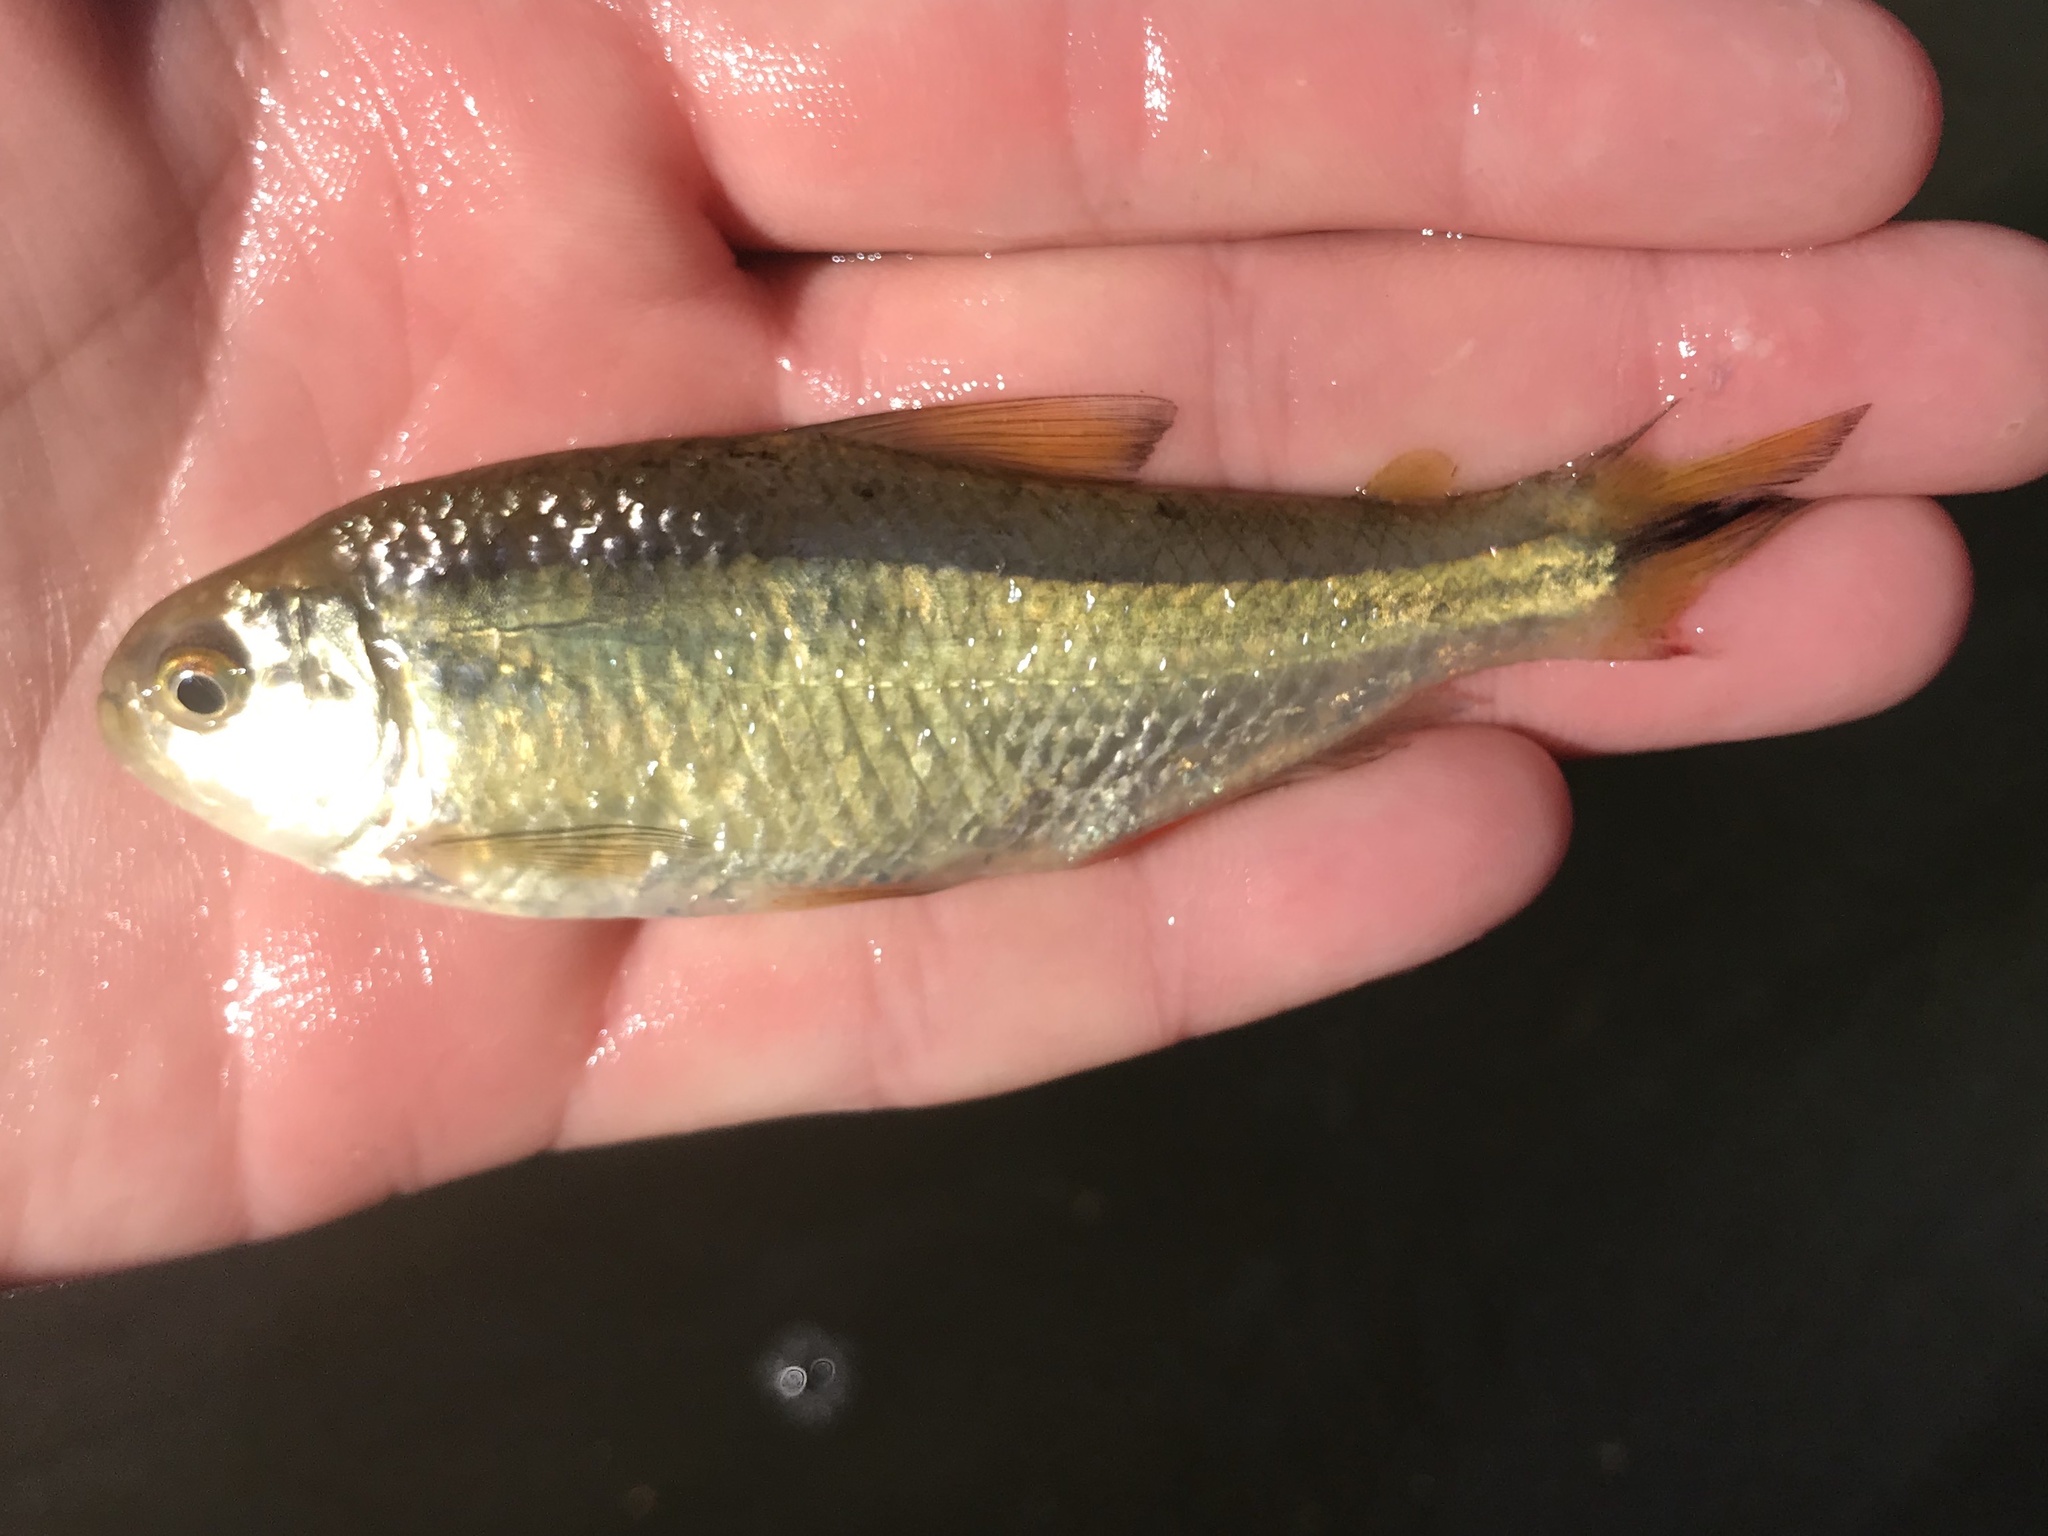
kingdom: Animalia
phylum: Chordata
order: Characiformes
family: Characidae
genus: Astyanax
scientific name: Astyanax mexicanus
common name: Mexican tetra
